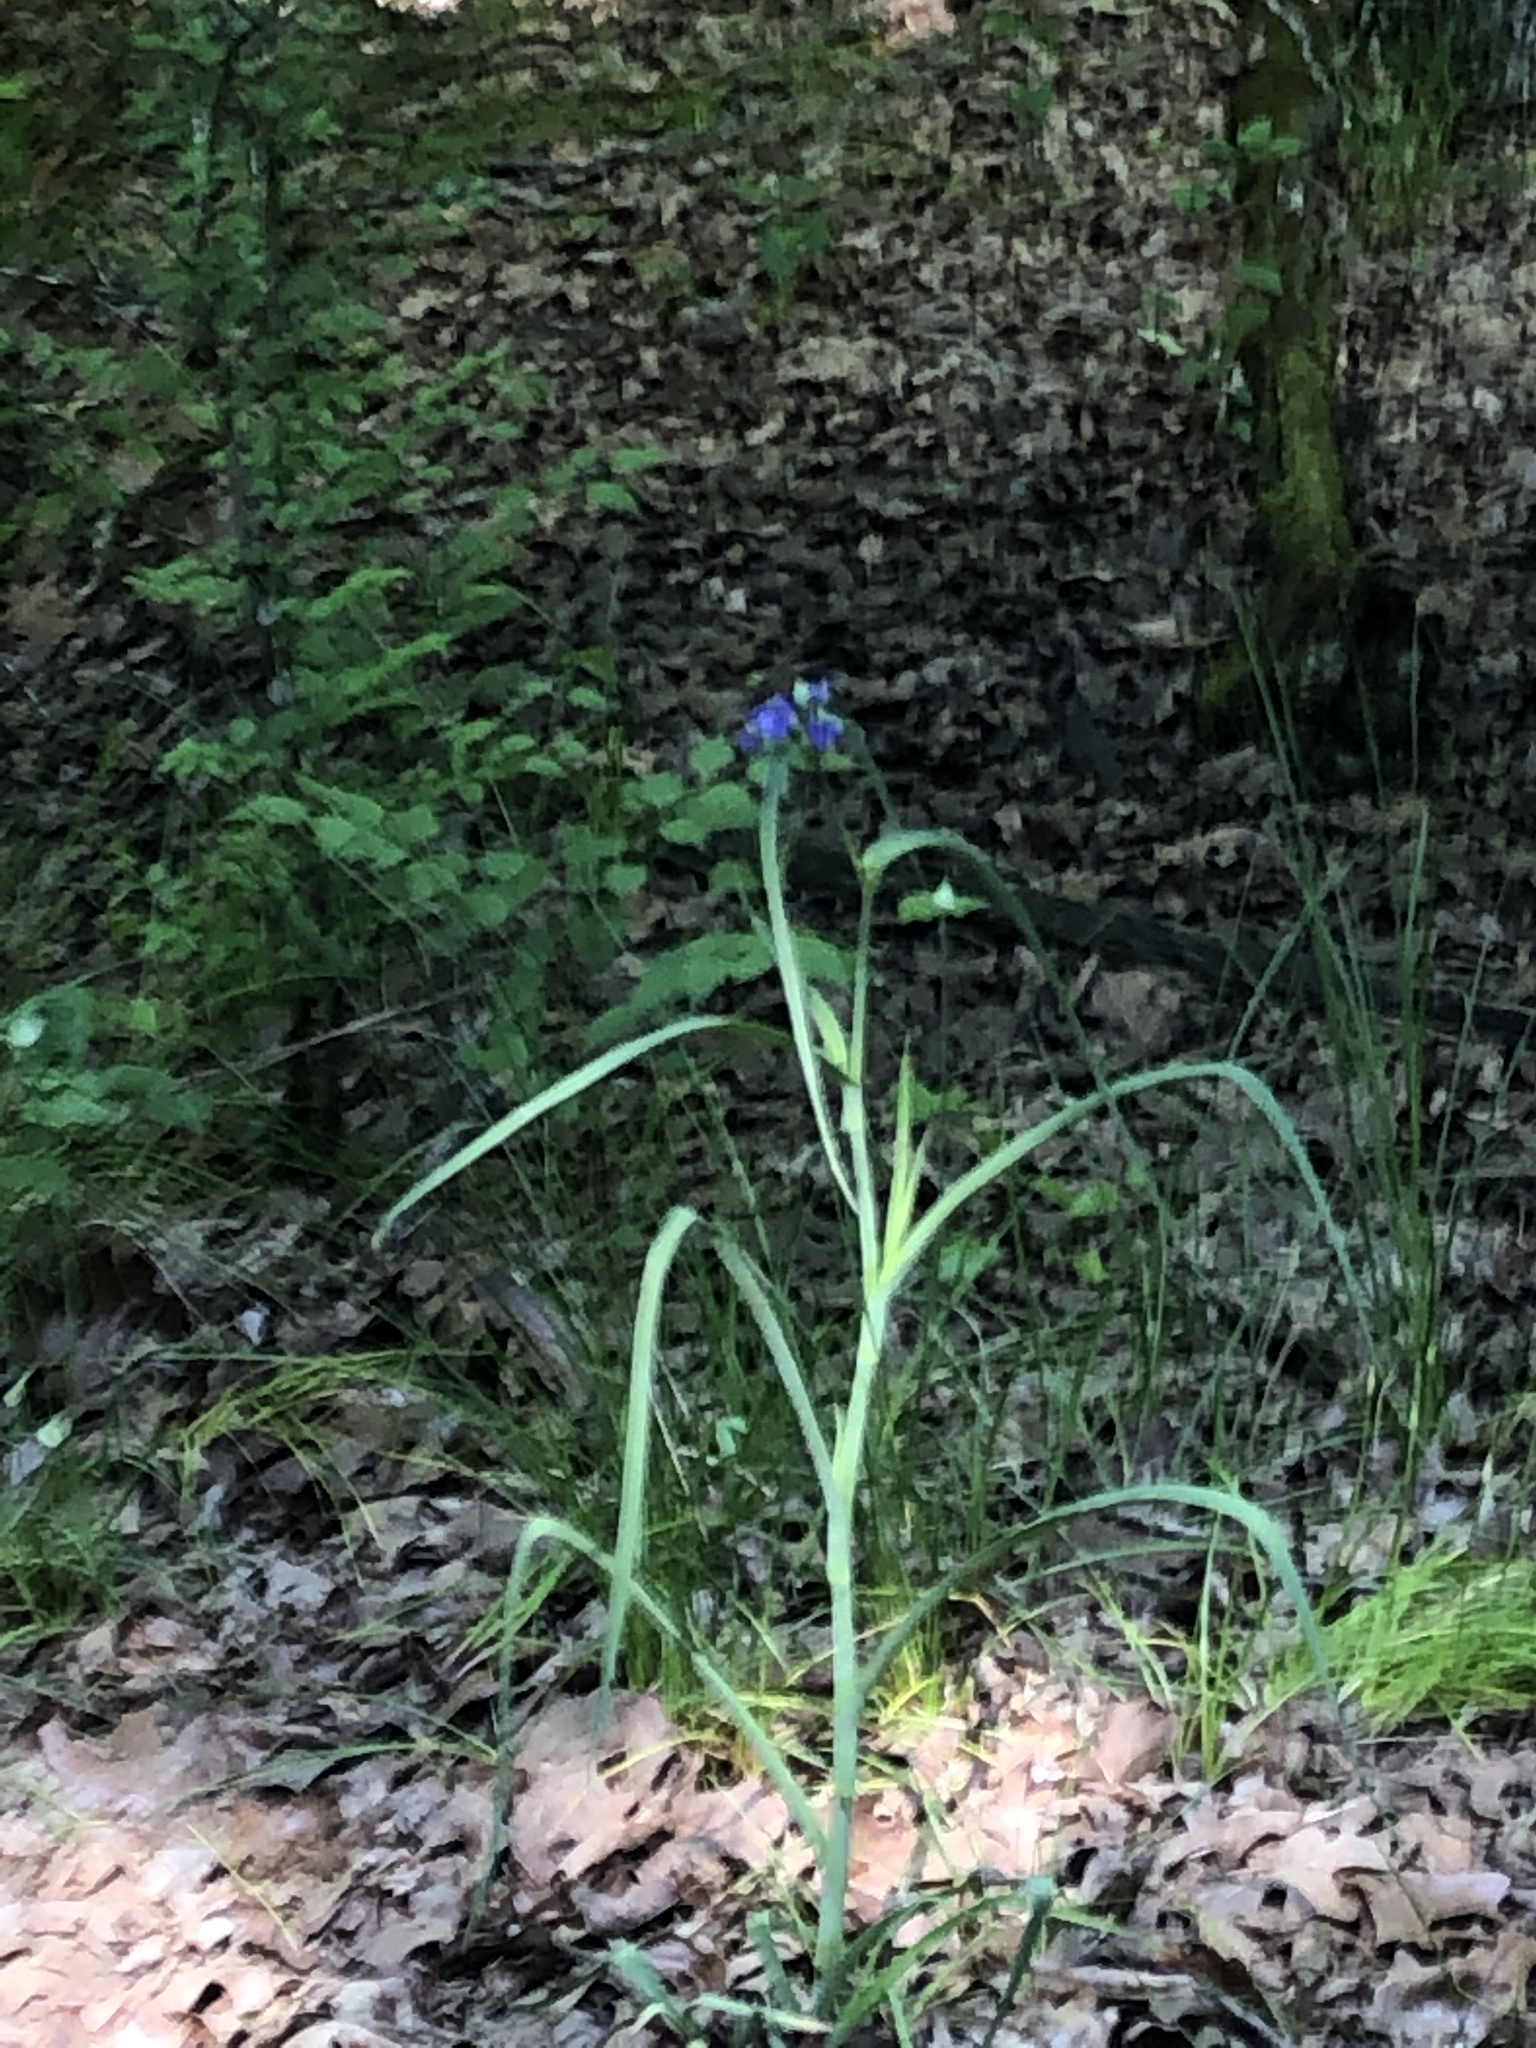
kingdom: Plantae
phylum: Tracheophyta
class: Liliopsida
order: Commelinales
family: Commelinaceae
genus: Tradescantia
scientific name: Tradescantia ohiensis
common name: Ohio spiderwort
